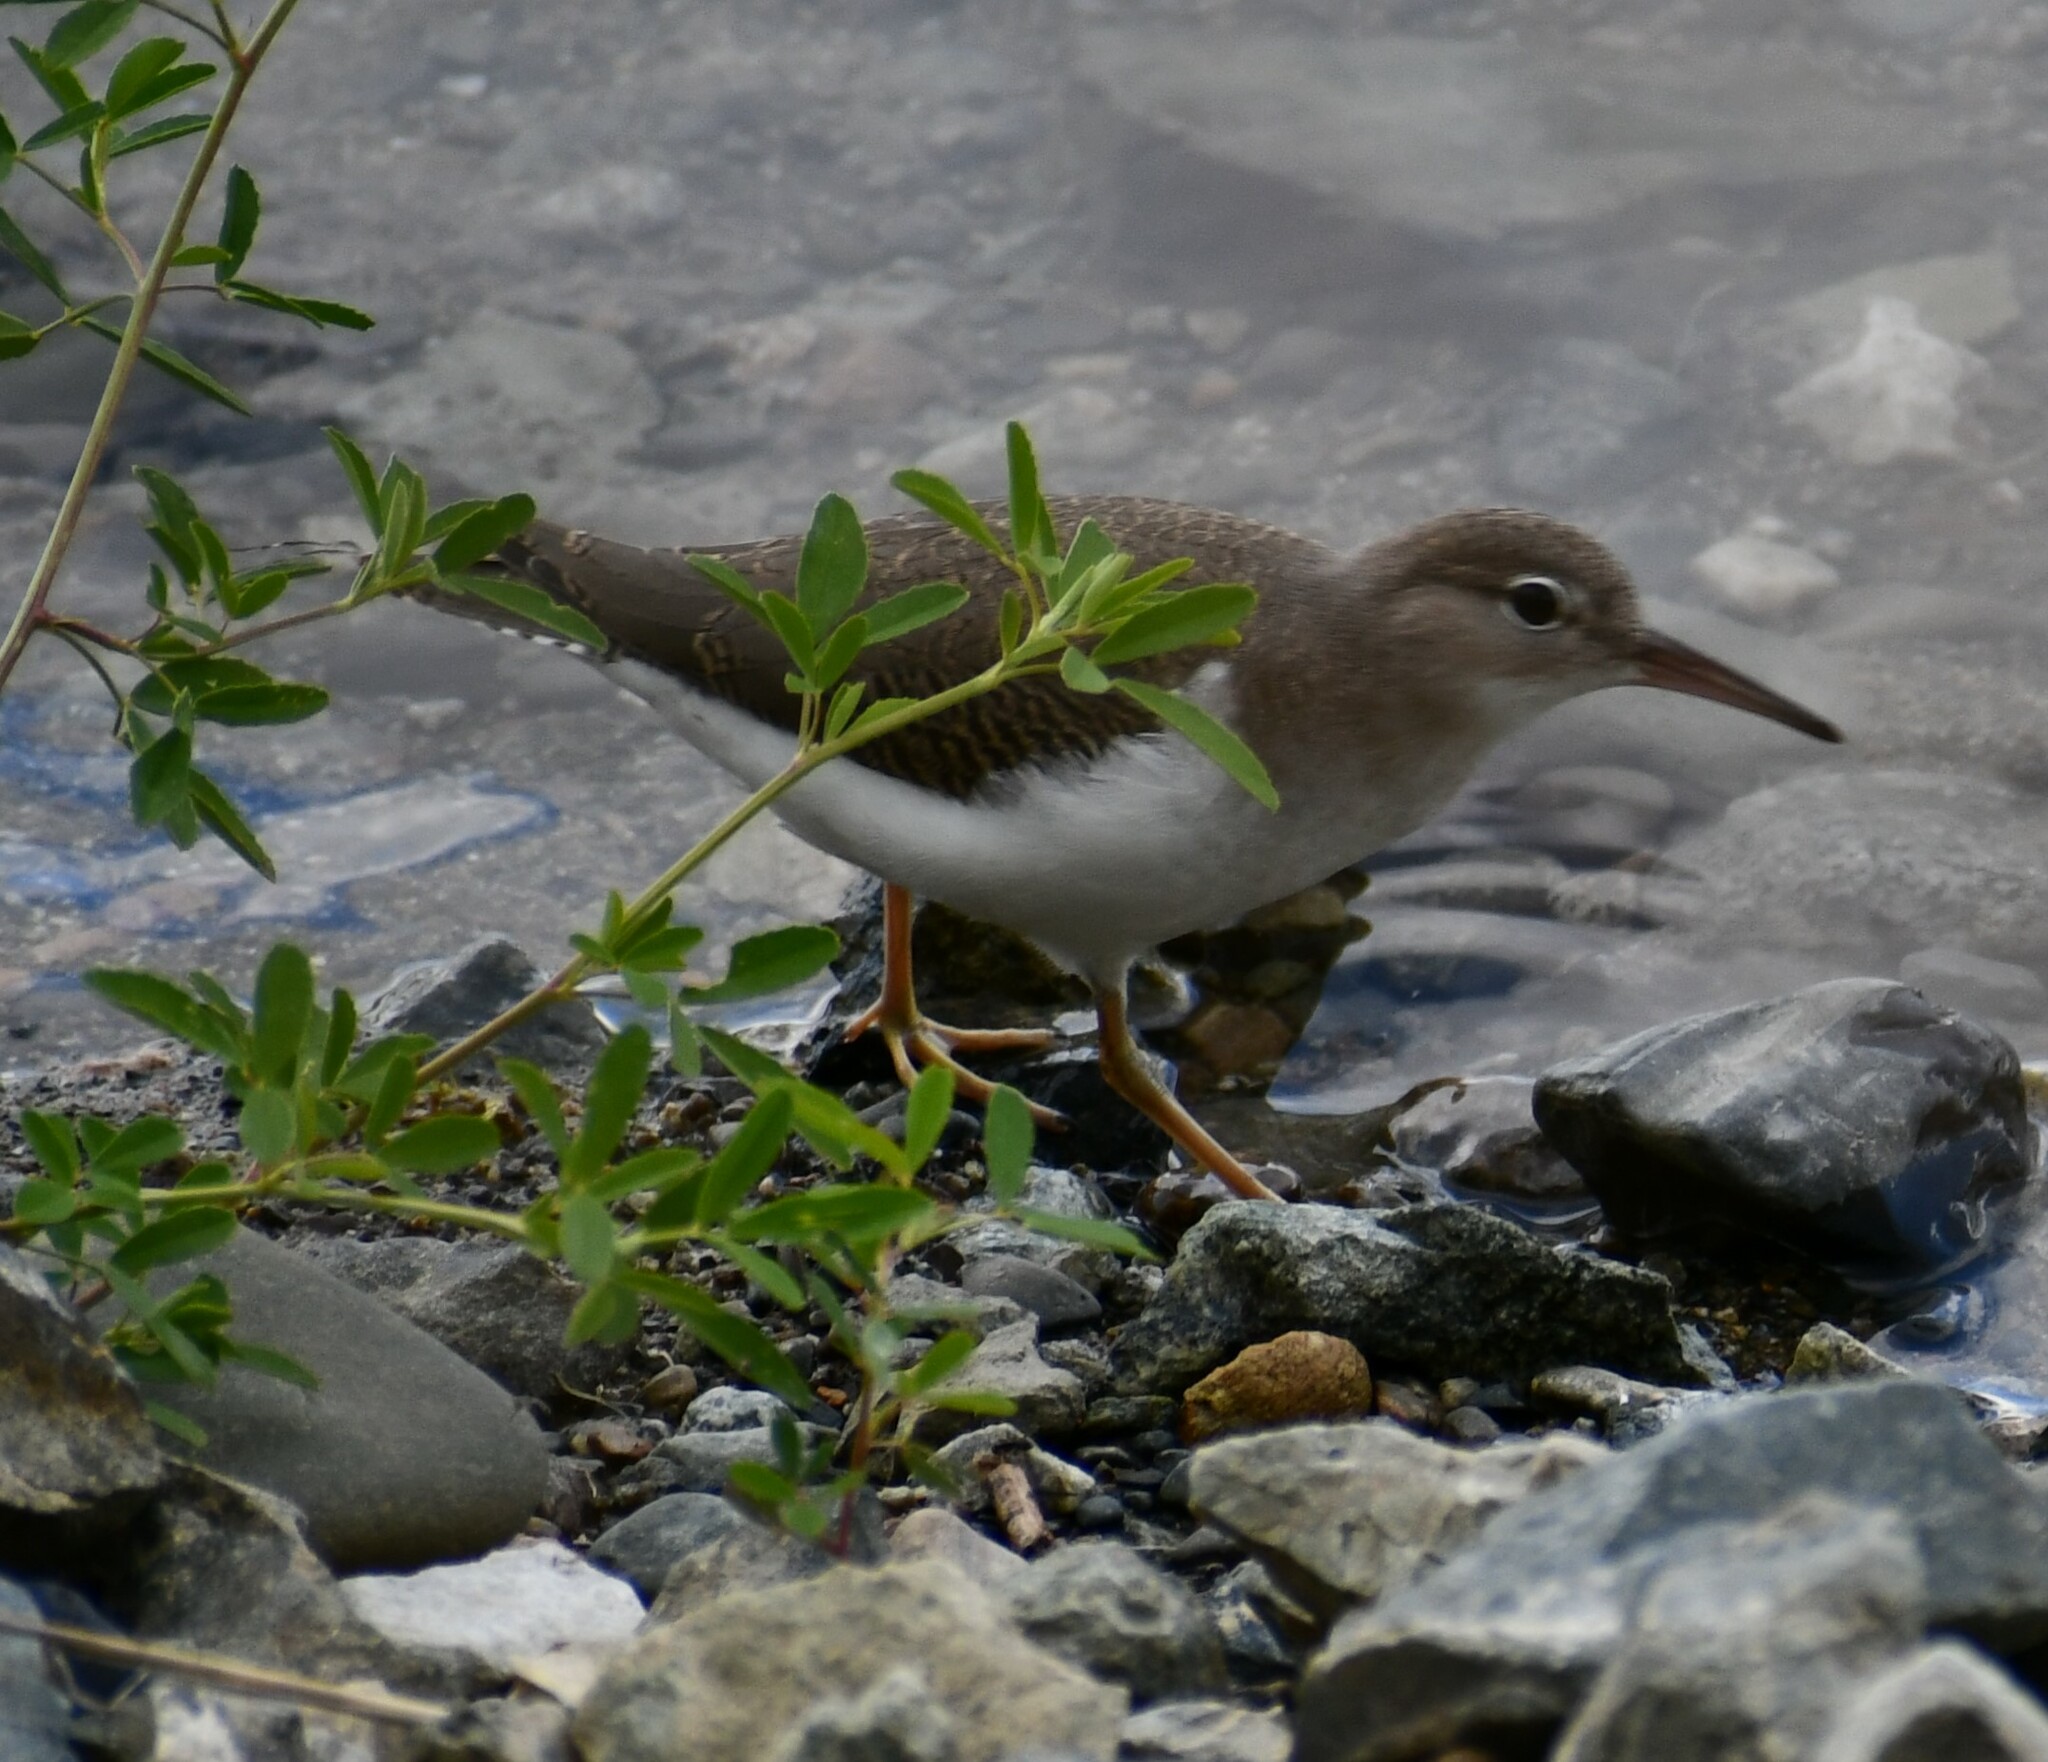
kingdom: Animalia
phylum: Chordata
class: Aves
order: Charadriiformes
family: Scolopacidae
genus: Actitis
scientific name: Actitis macularius
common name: Spotted sandpiper
